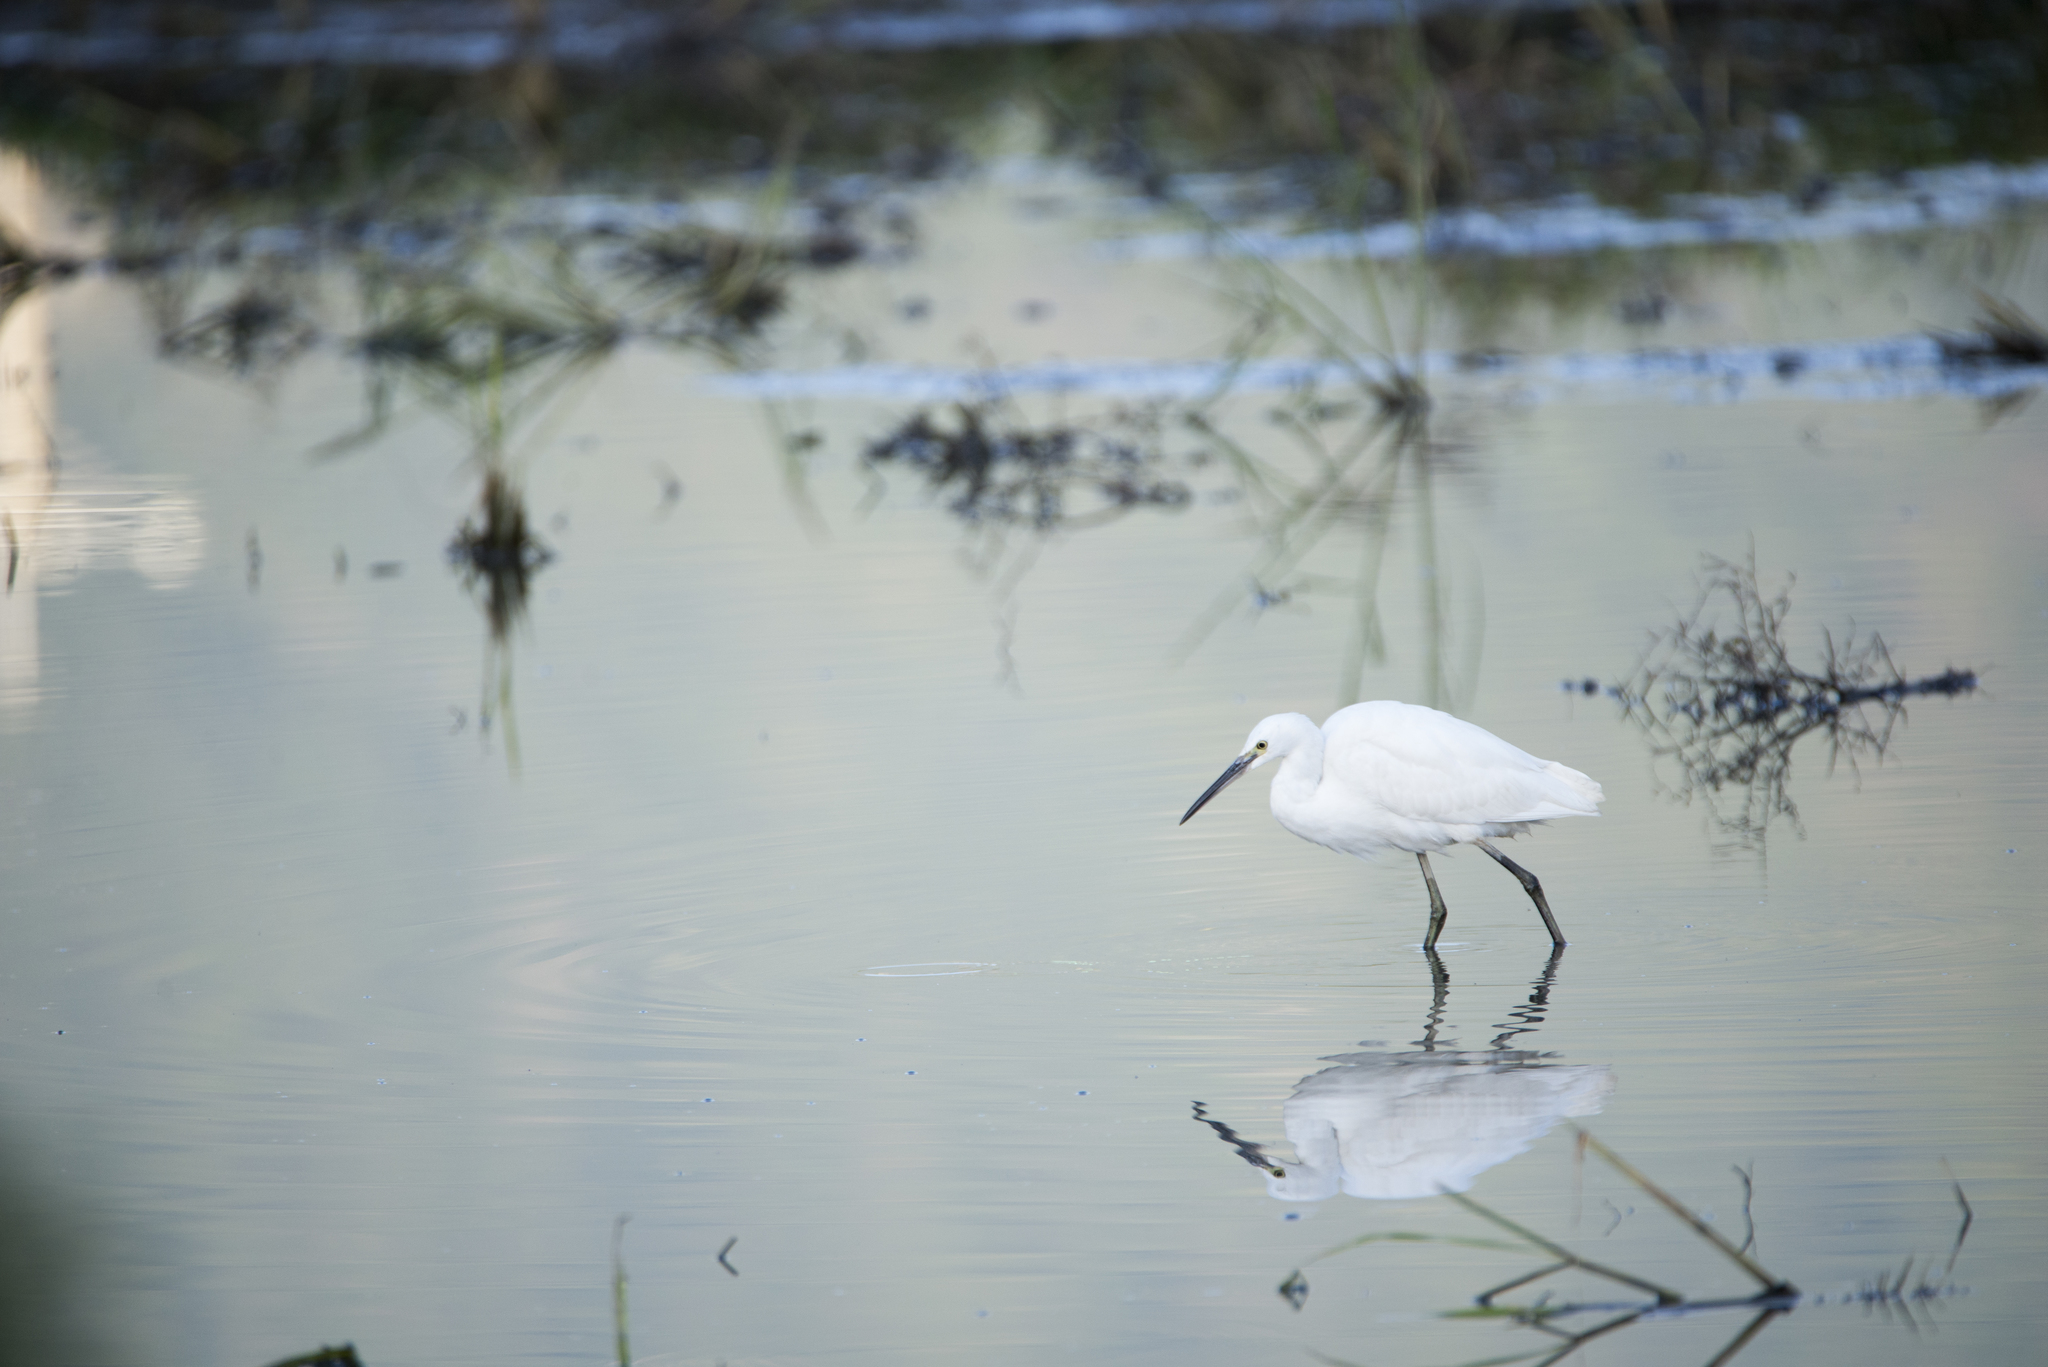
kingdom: Animalia
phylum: Chordata
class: Aves
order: Pelecaniformes
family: Ardeidae
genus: Egretta
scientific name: Egretta garzetta
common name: Little egret
